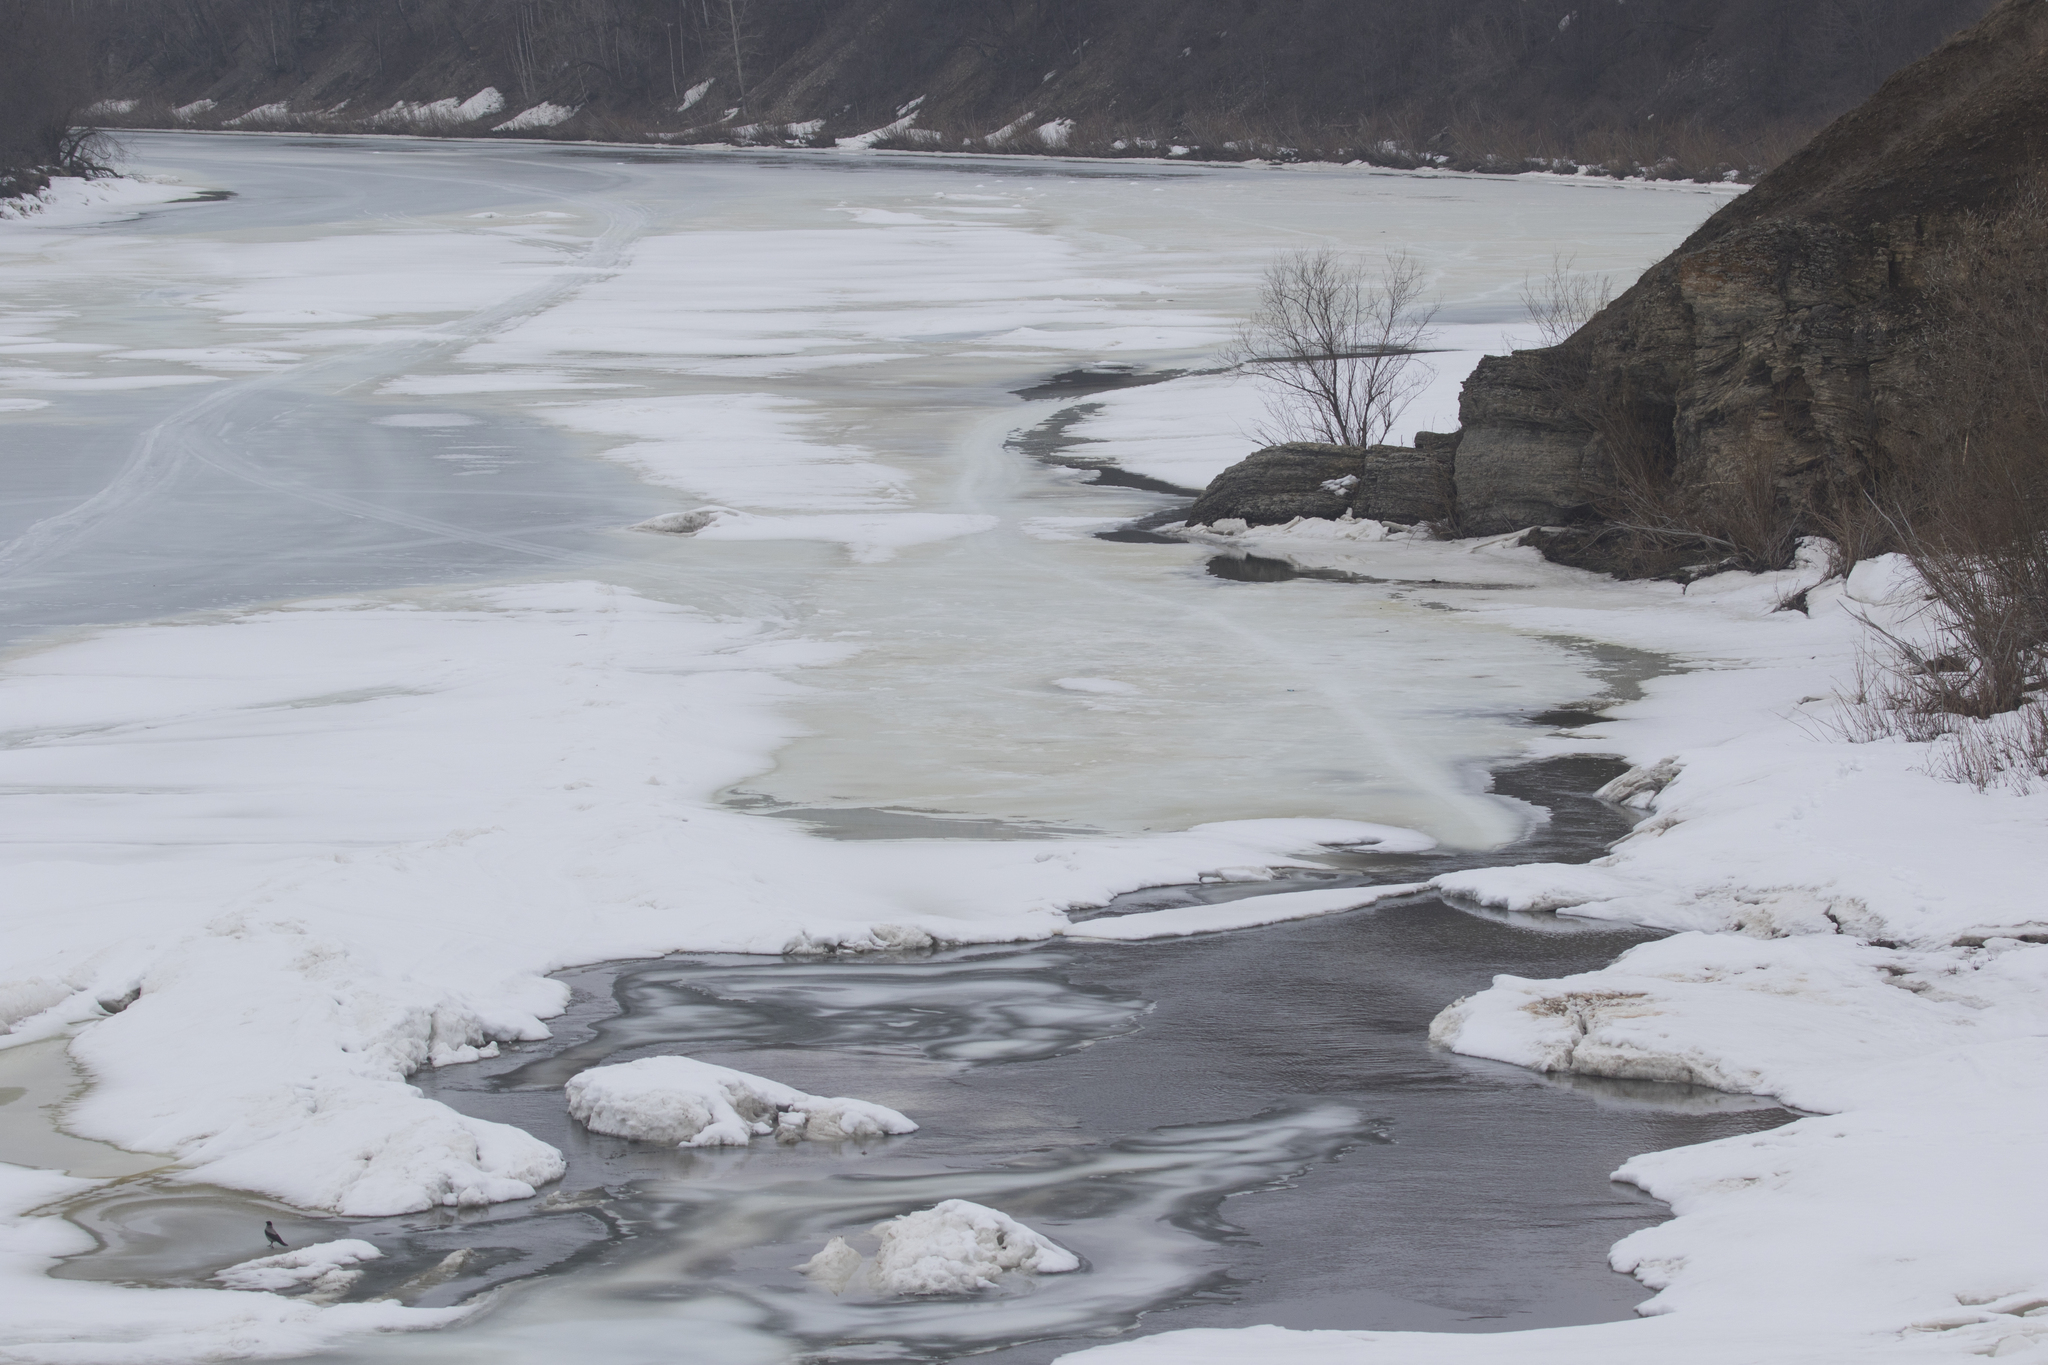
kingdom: Animalia
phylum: Chordata
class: Aves
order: Passeriformes
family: Corvidae
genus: Corvus
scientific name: Corvus cornix
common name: Hooded crow
